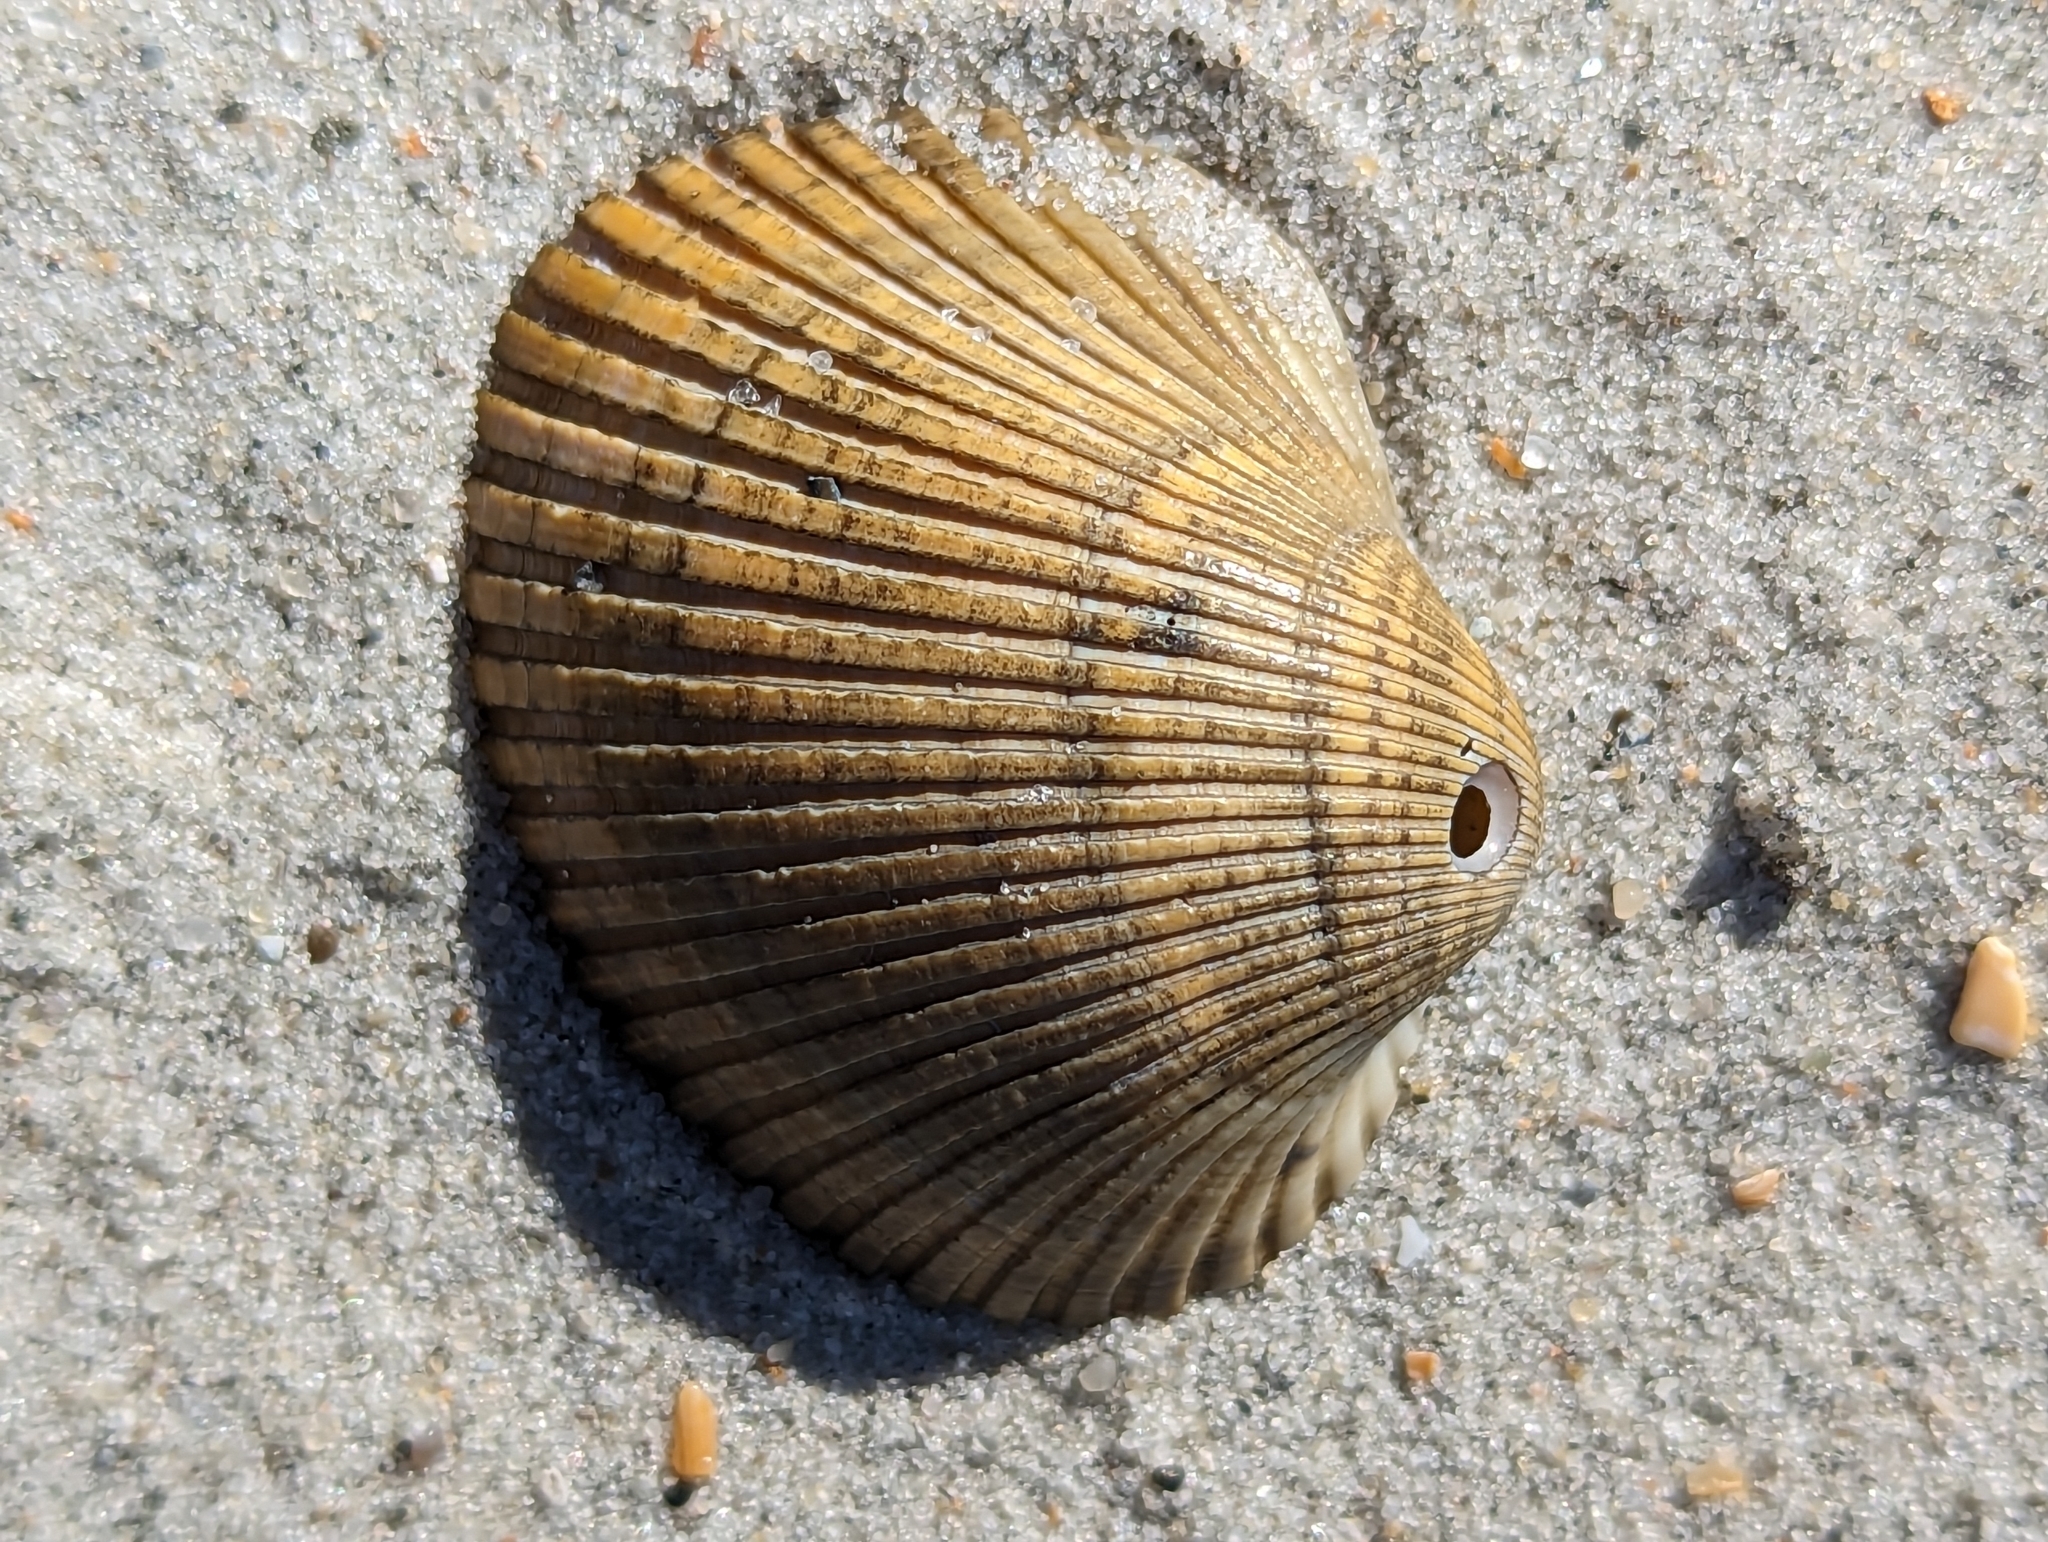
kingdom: Animalia
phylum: Mollusca
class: Bivalvia
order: Arcida
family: Arcidae
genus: Lunarca
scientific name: Lunarca ovalis
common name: Blood ark
